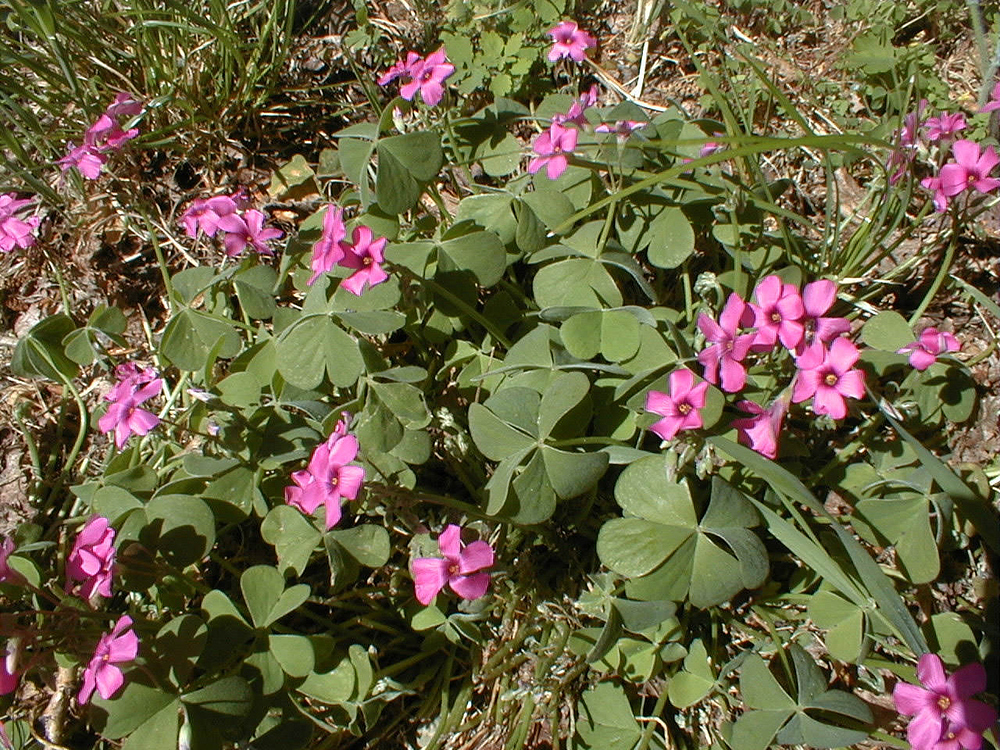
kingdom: Plantae
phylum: Tracheophyta
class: Magnoliopsida
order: Oxalidales
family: Oxalidaceae
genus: Oxalis
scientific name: Oxalis articulata
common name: Pink-sorrel
